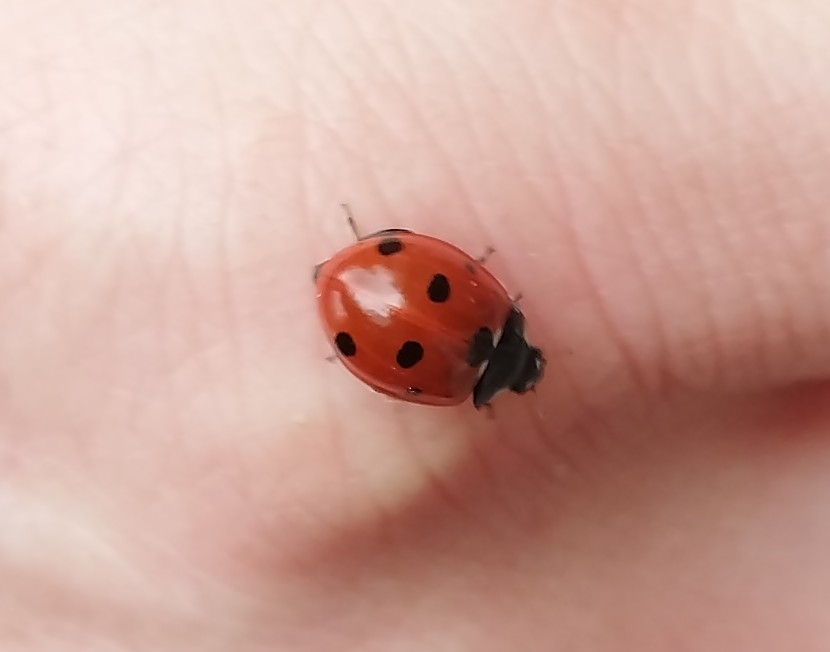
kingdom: Animalia
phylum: Arthropoda
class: Insecta
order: Coleoptera
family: Coccinellidae
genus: Coccinella
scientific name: Coccinella septempunctata
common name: Sevenspotted lady beetle
